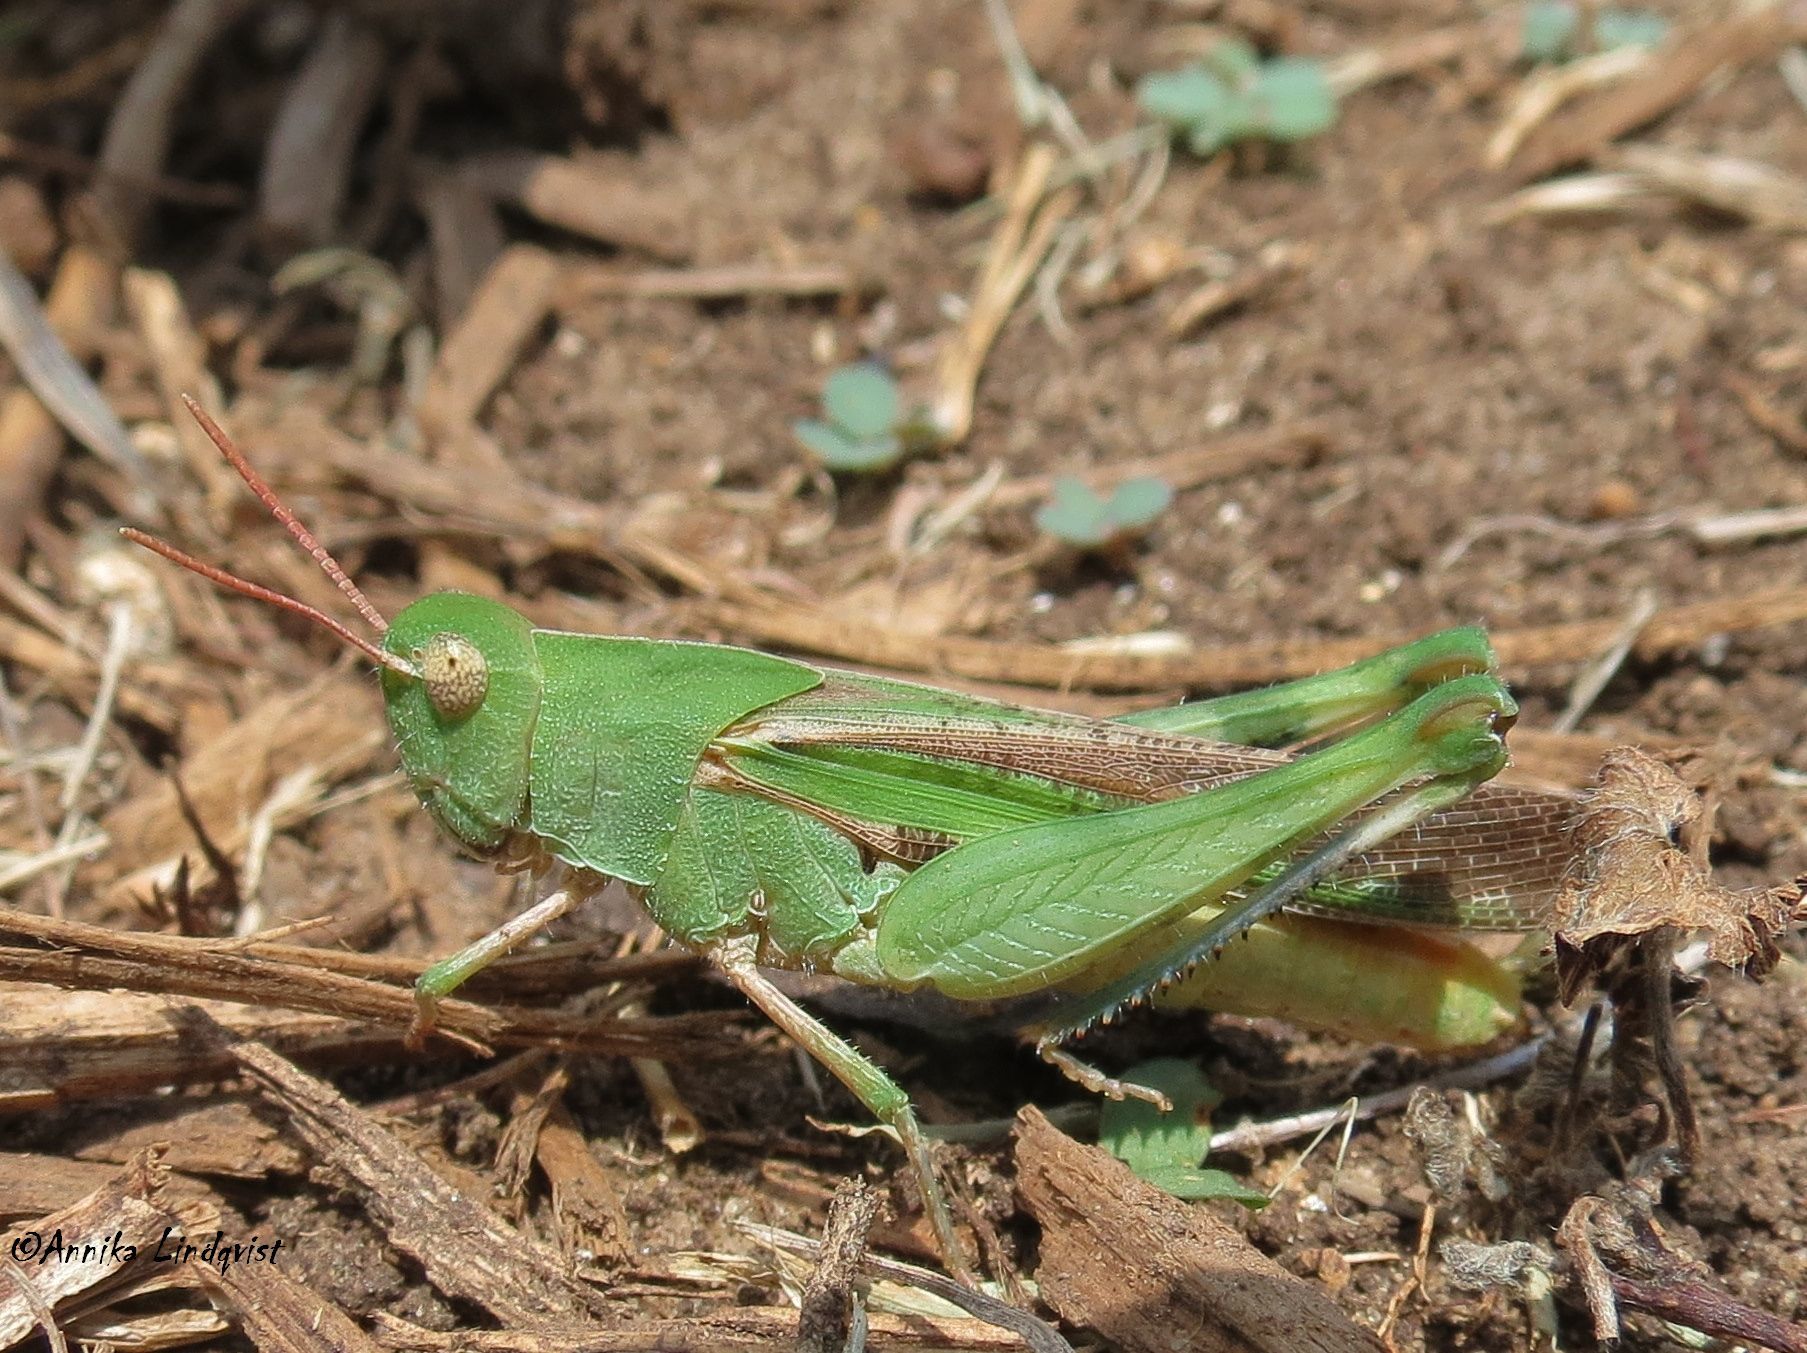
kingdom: Animalia
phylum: Arthropoda
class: Insecta
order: Orthoptera
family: Acrididae
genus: Chortophaga
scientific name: Chortophaga viridifasciata
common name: Green-striped grasshopper
